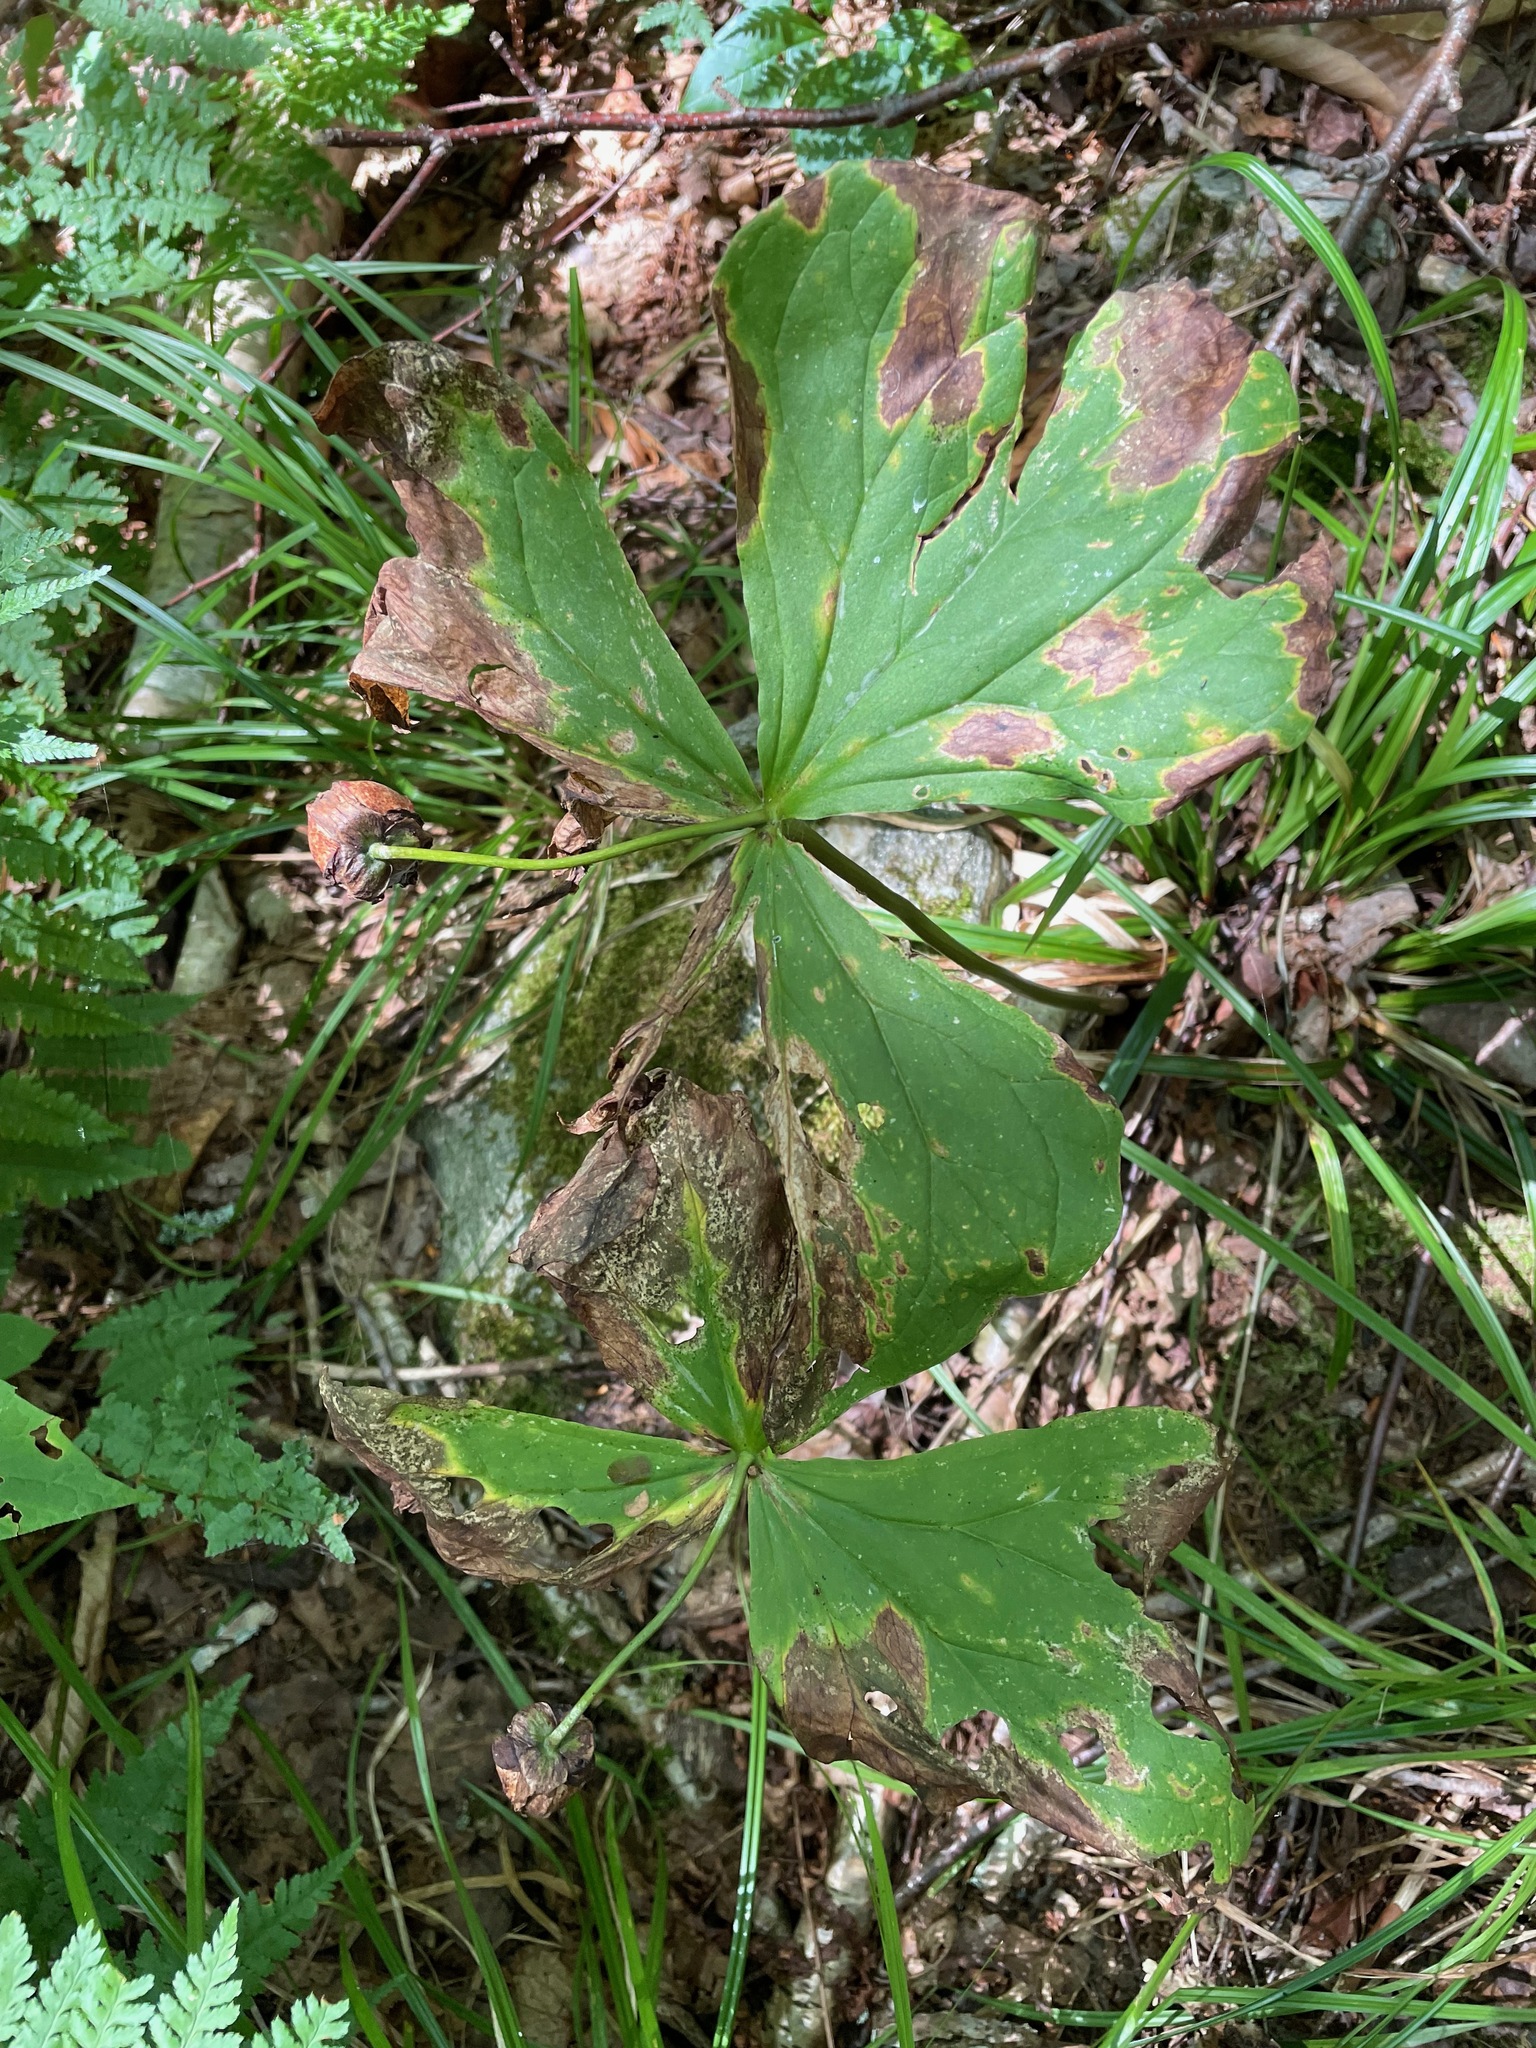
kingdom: Plantae
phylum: Tracheophyta
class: Liliopsida
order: Liliales
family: Melanthiaceae
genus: Trillium
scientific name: Trillium erectum
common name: Purple trillium
